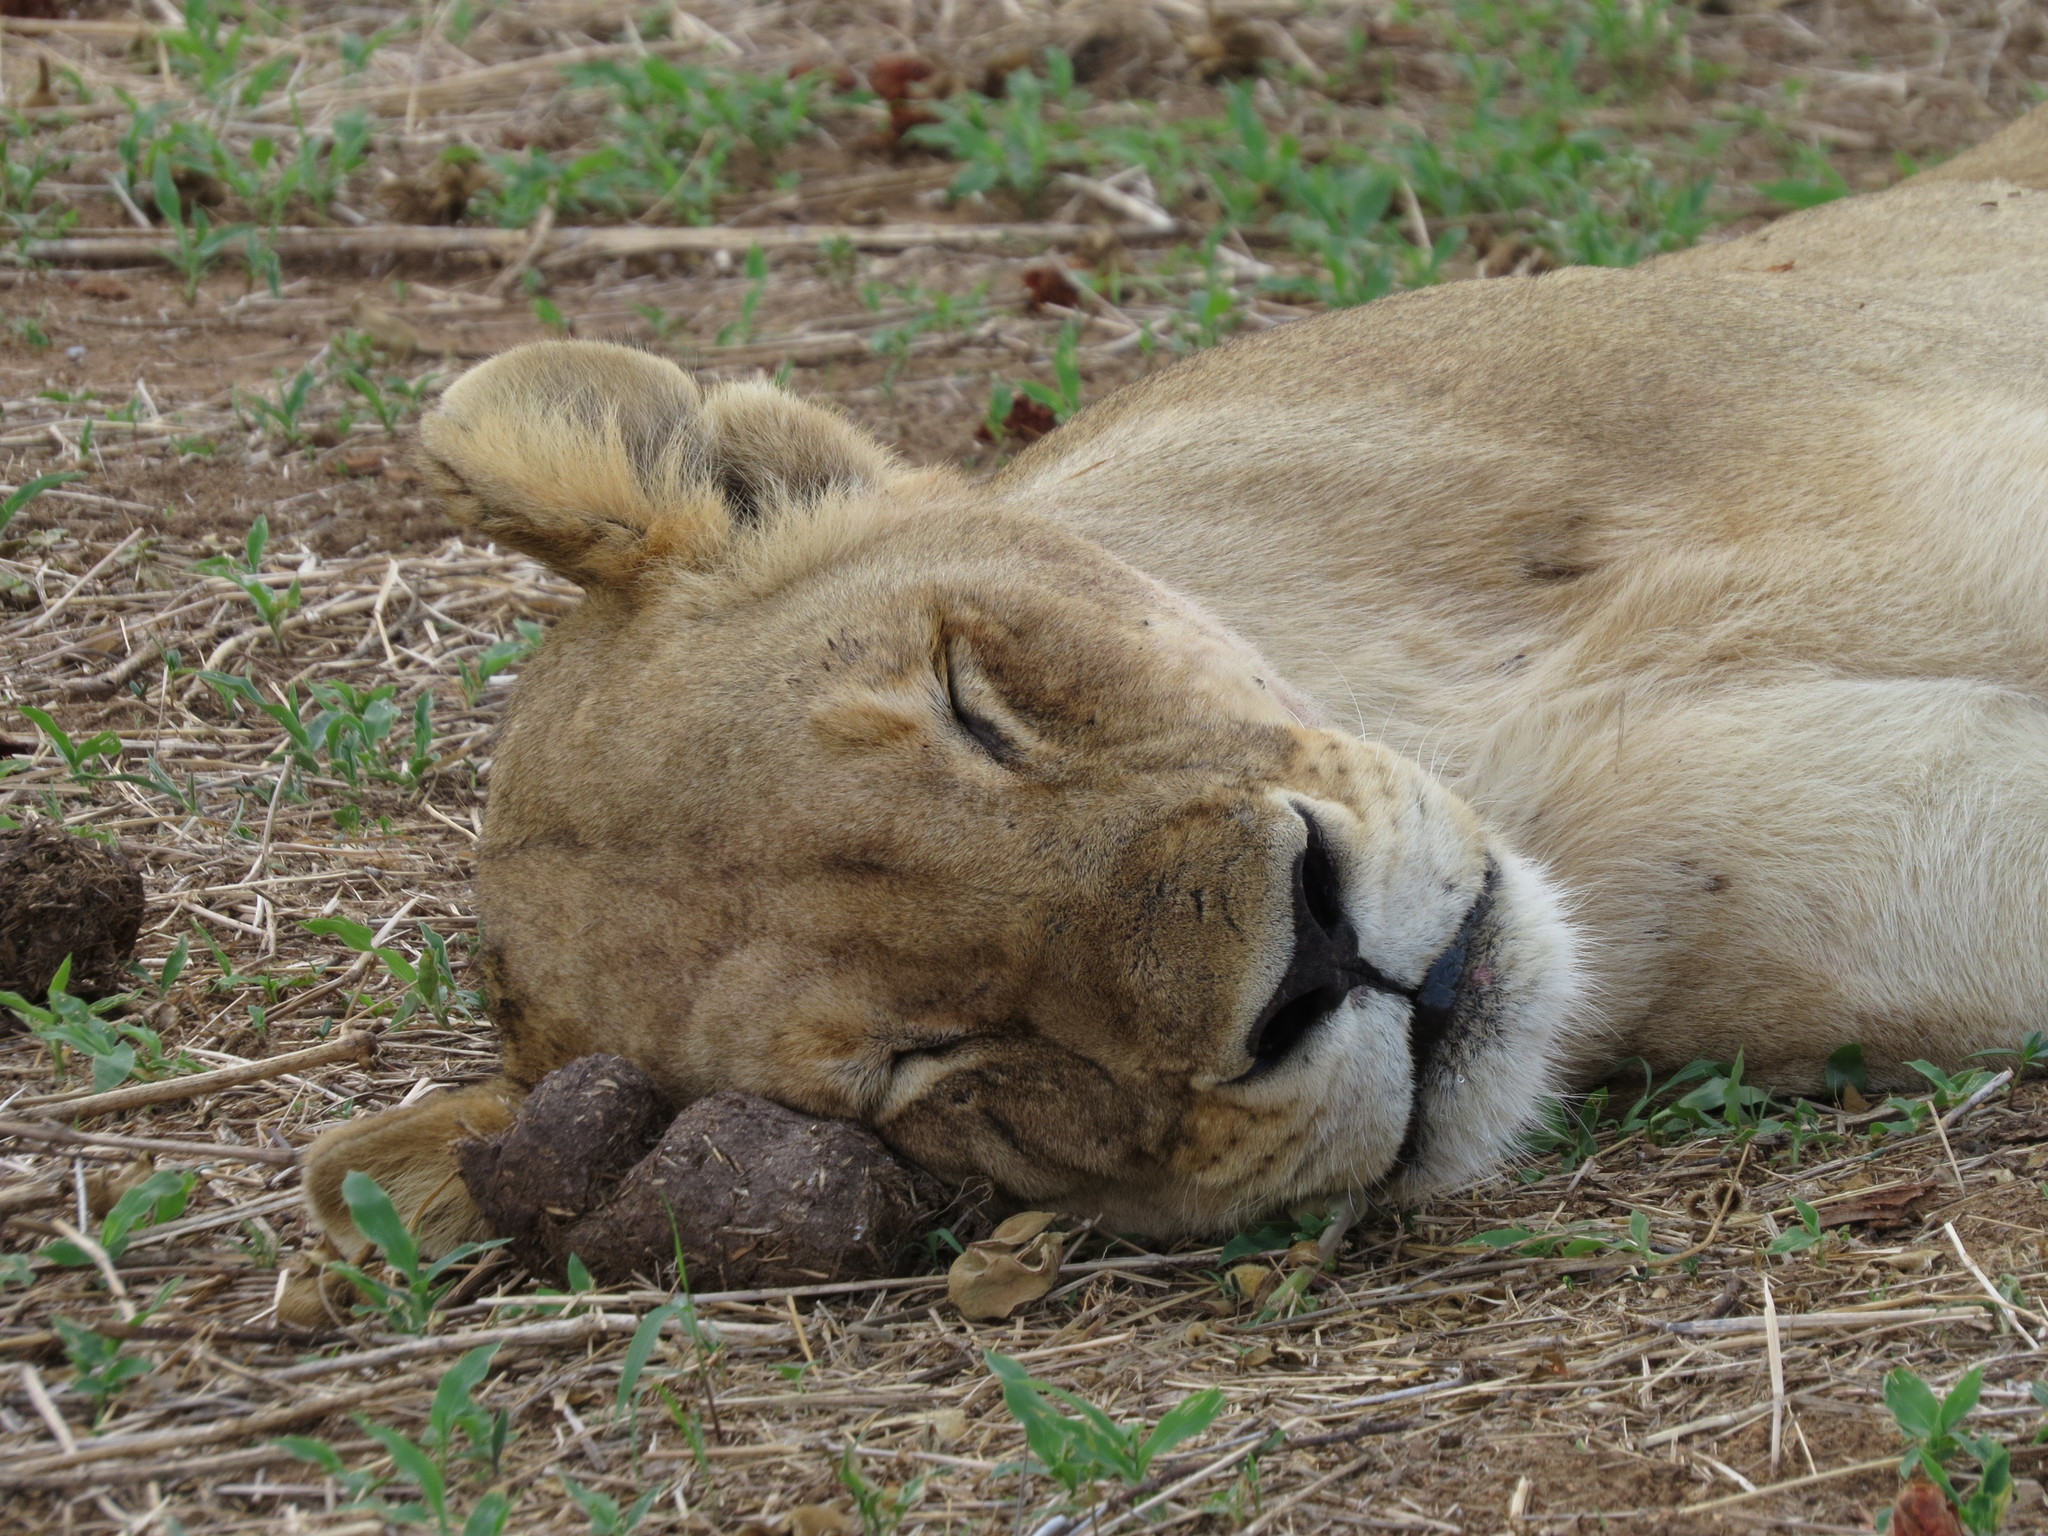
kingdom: Animalia
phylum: Chordata
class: Mammalia
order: Carnivora
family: Felidae
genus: Panthera
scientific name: Panthera leo
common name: Lion
